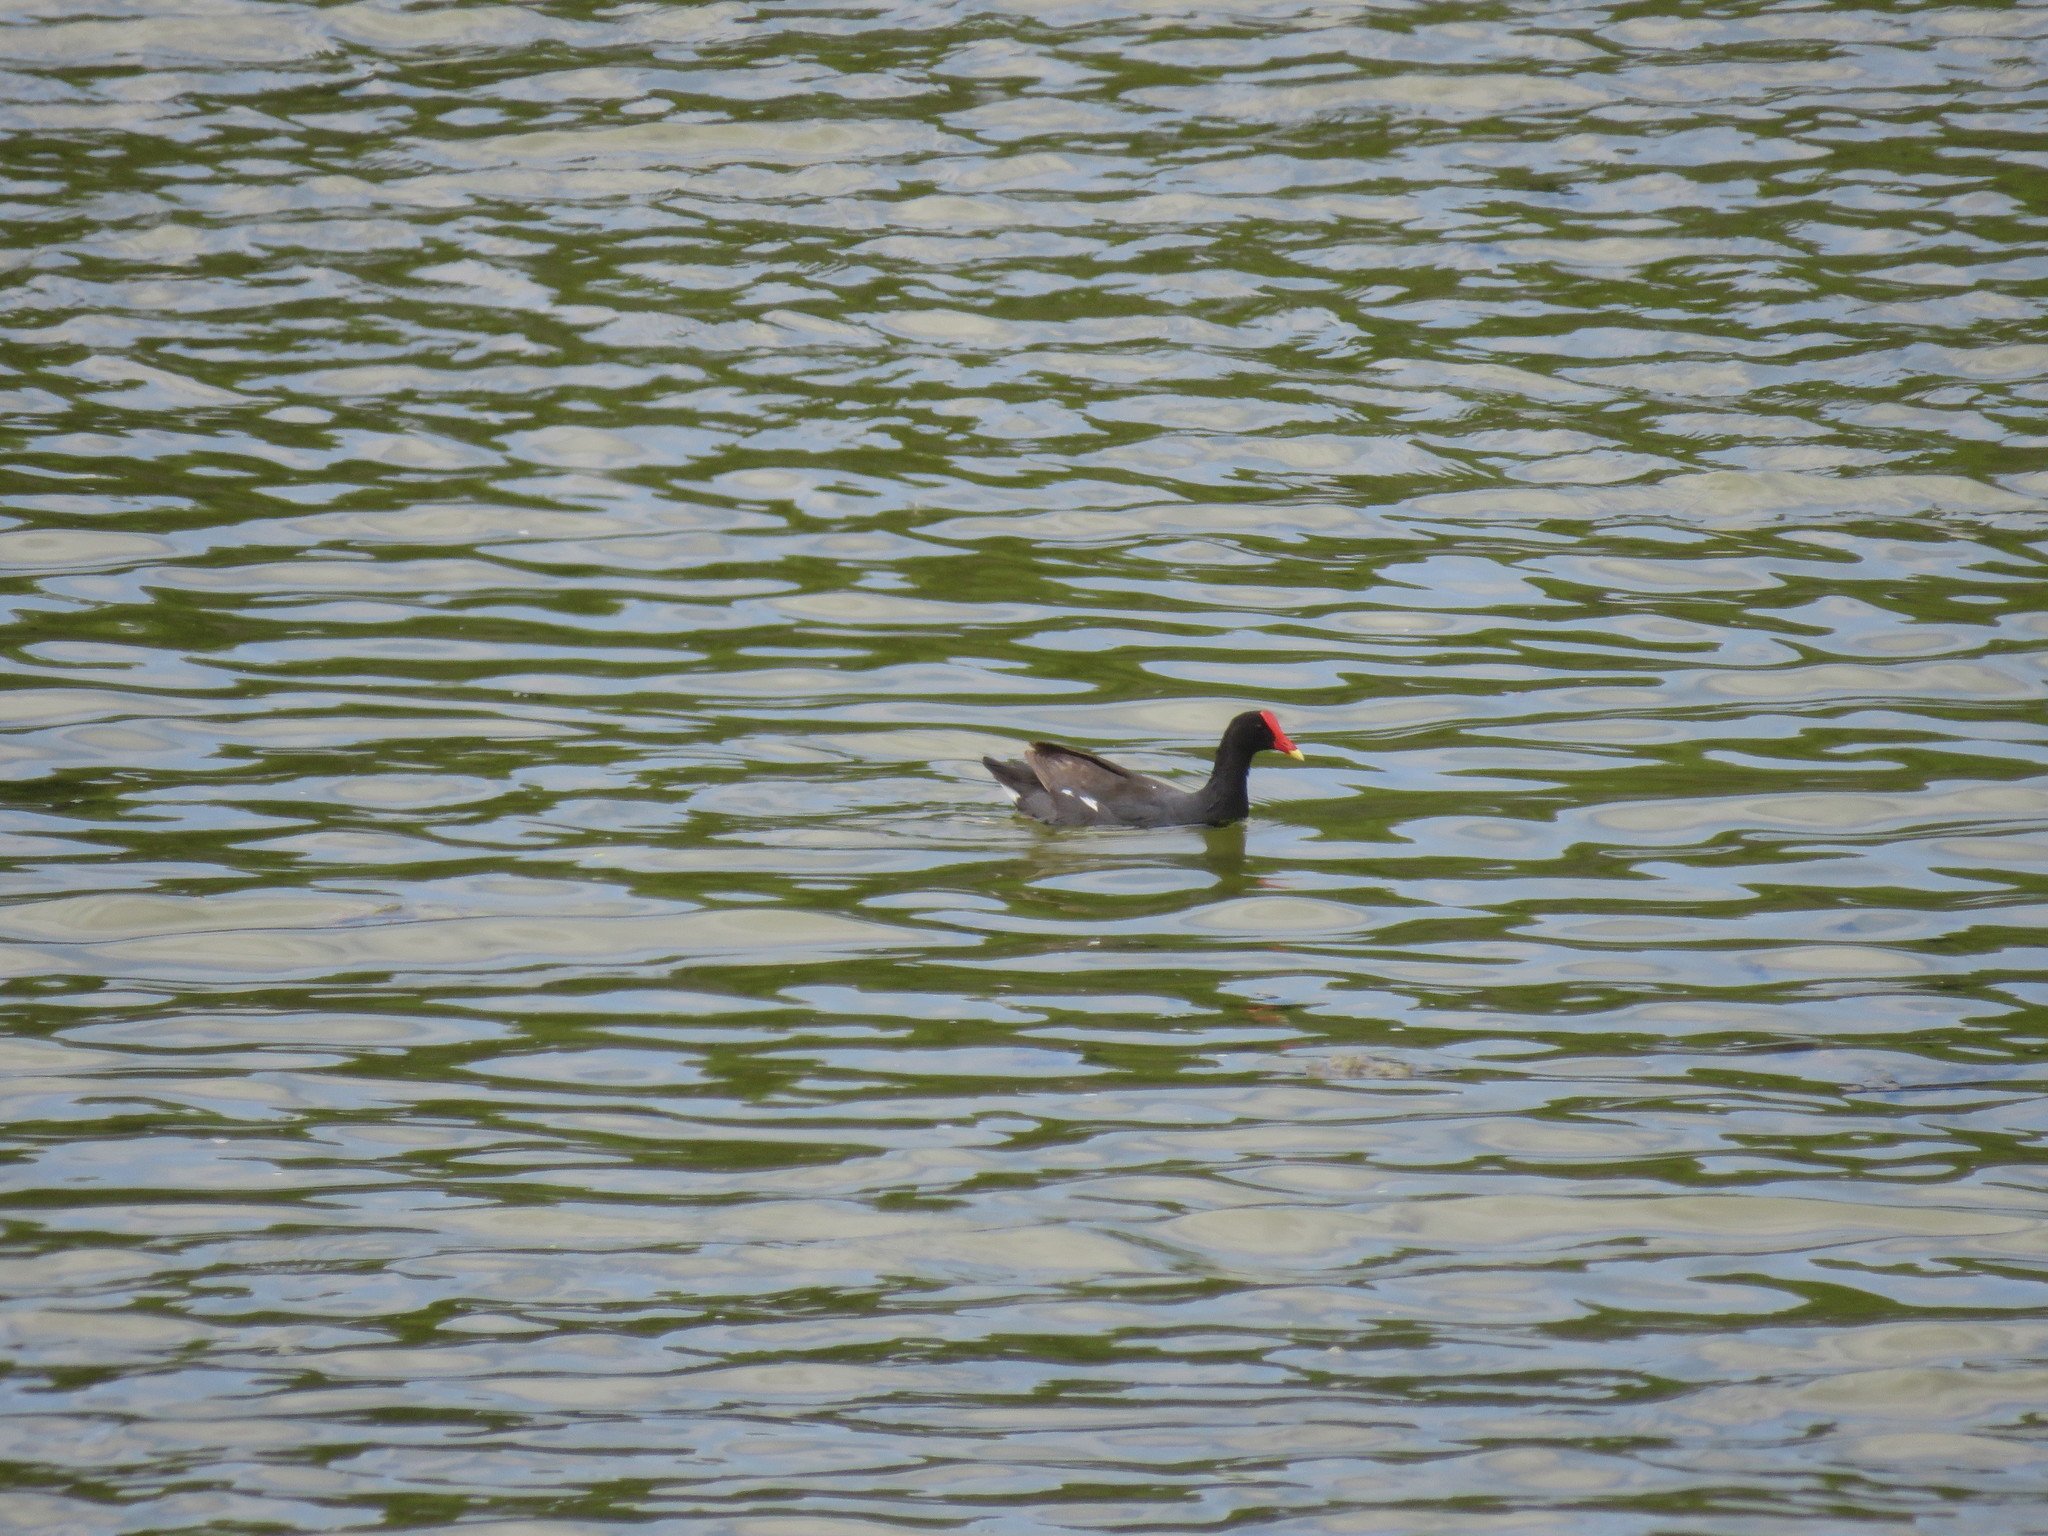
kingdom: Animalia
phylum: Chordata
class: Aves
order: Gruiformes
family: Rallidae
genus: Gallinula
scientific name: Gallinula chloropus
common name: Common moorhen
